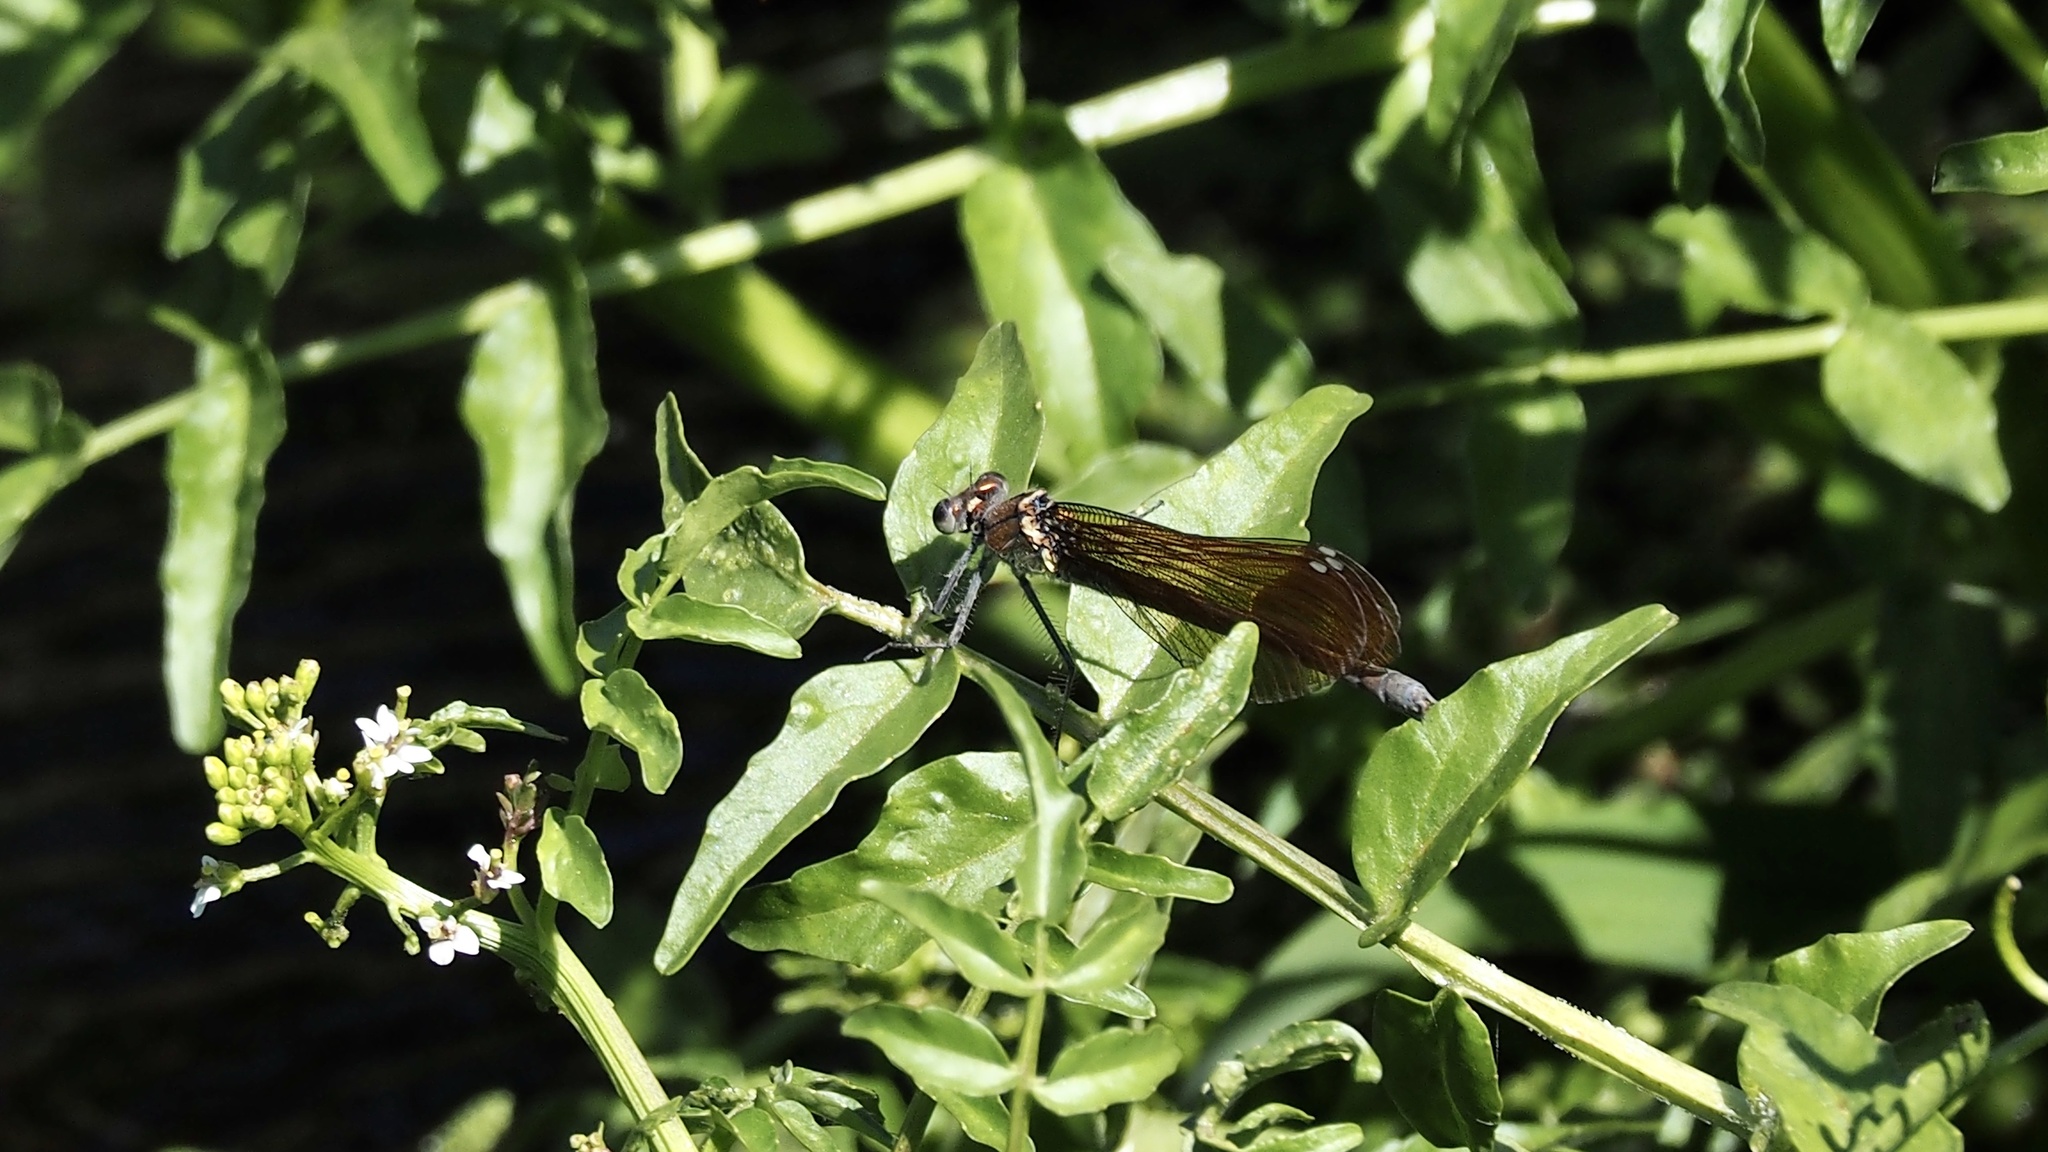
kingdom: Animalia
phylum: Arthropoda
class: Insecta
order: Odonata
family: Calopterygidae
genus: Mnais
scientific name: Mnais costalis
